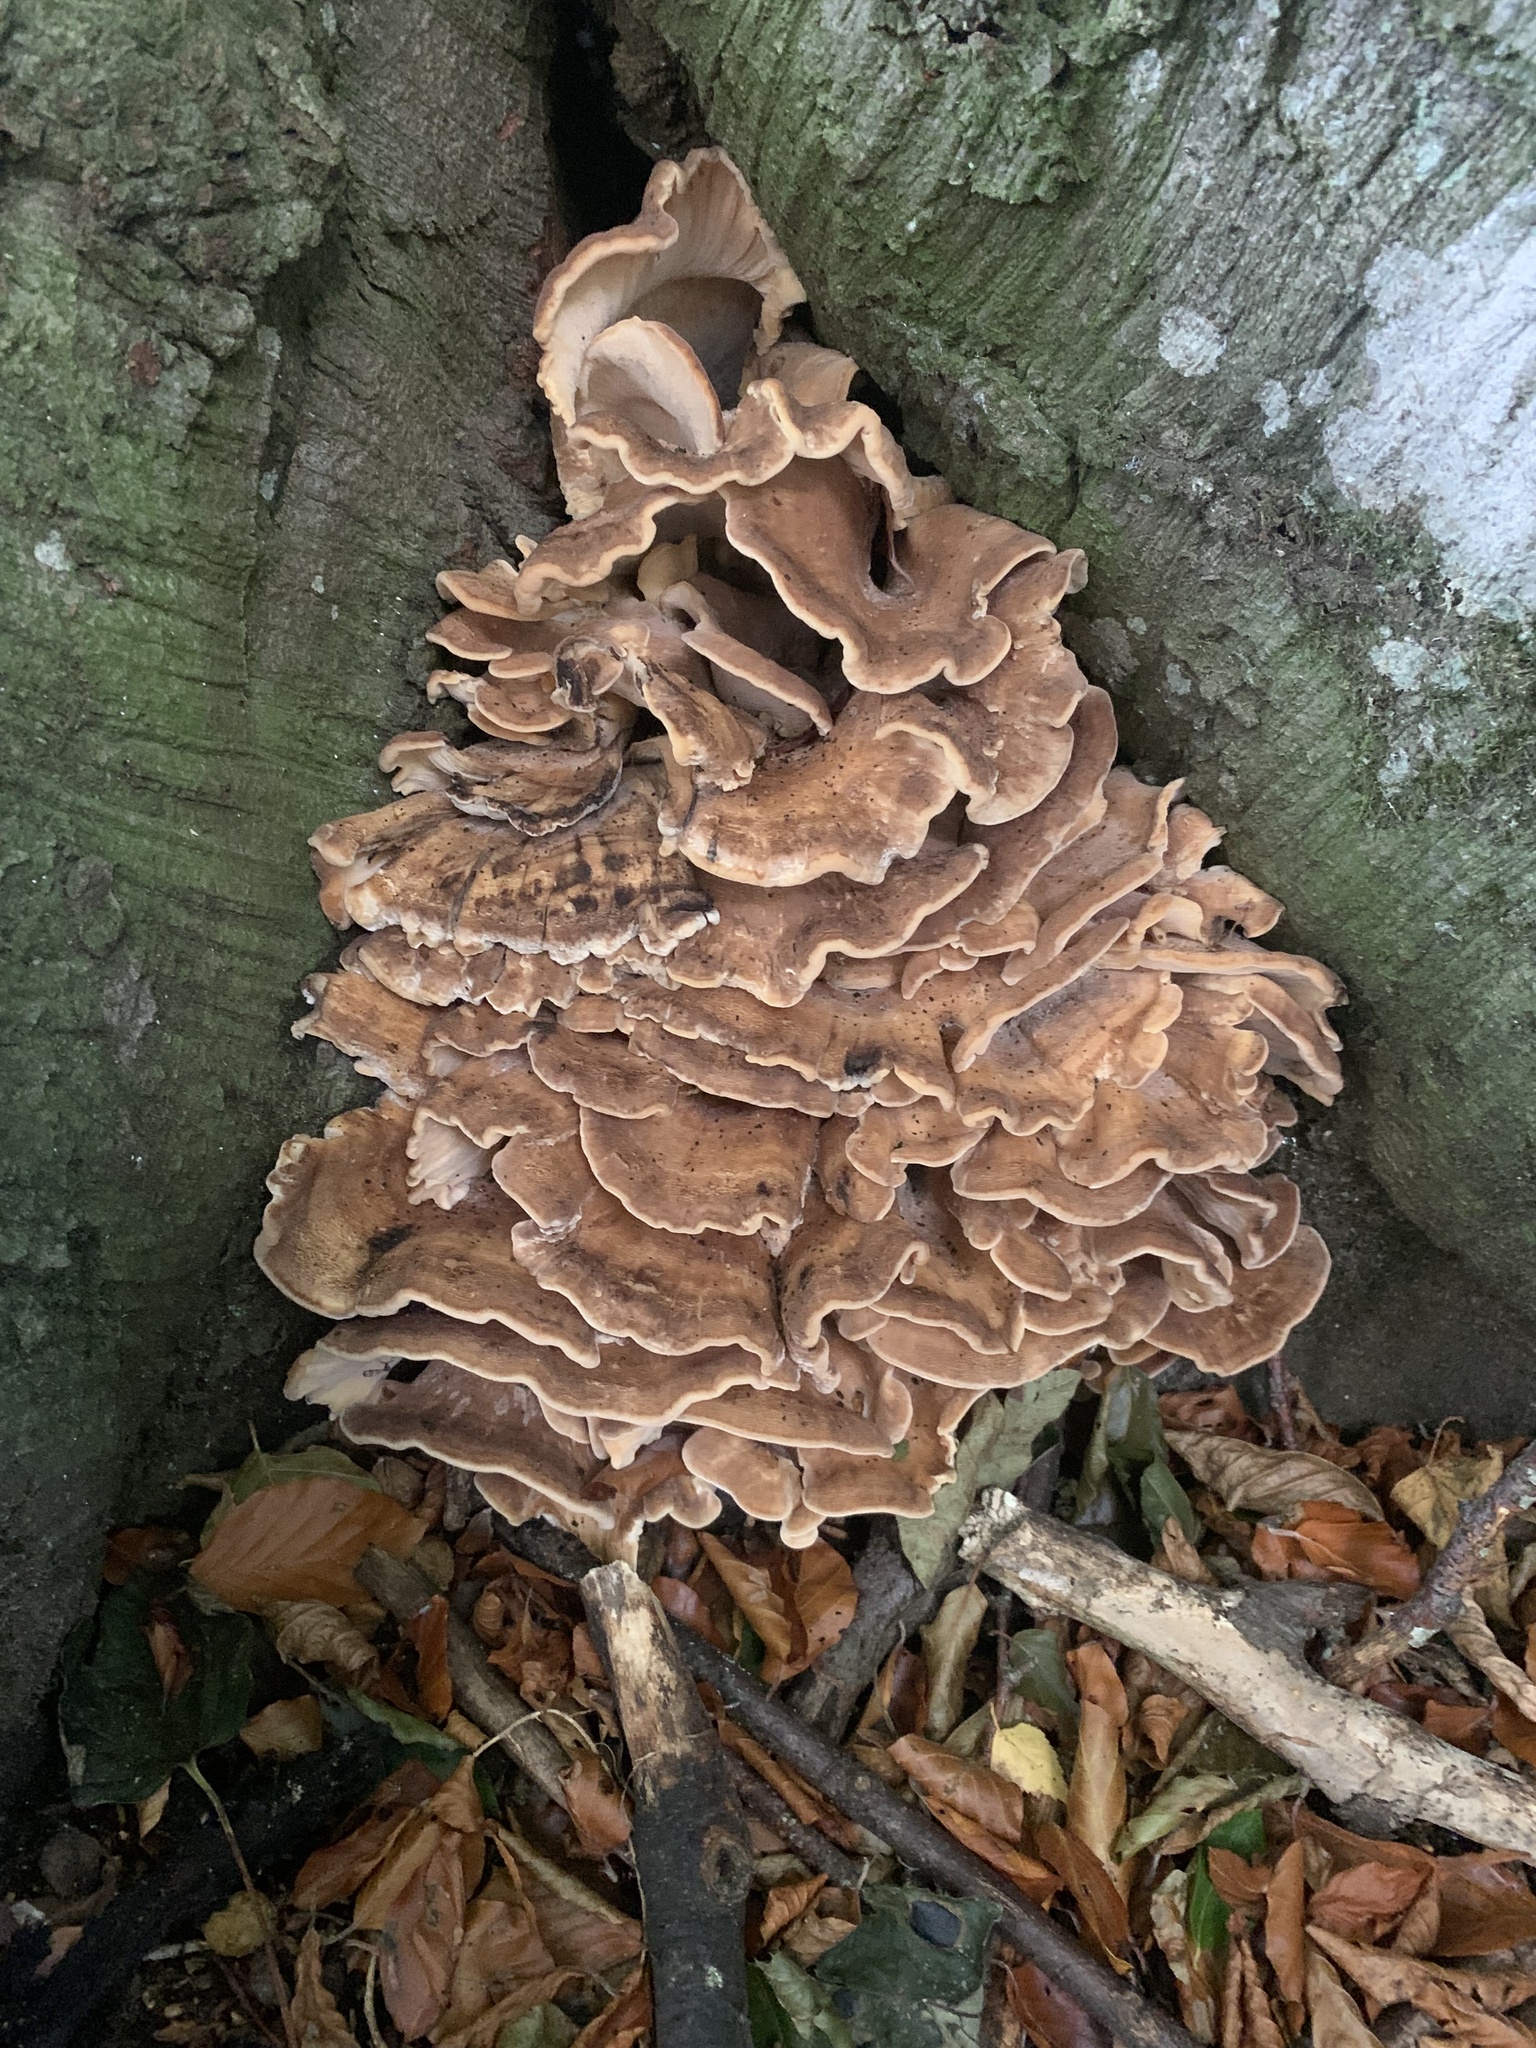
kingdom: Fungi
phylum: Basidiomycota
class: Agaricomycetes
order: Polyporales
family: Meripilaceae
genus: Meripilus
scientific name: Meripilus giganteus
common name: Giant polypore
